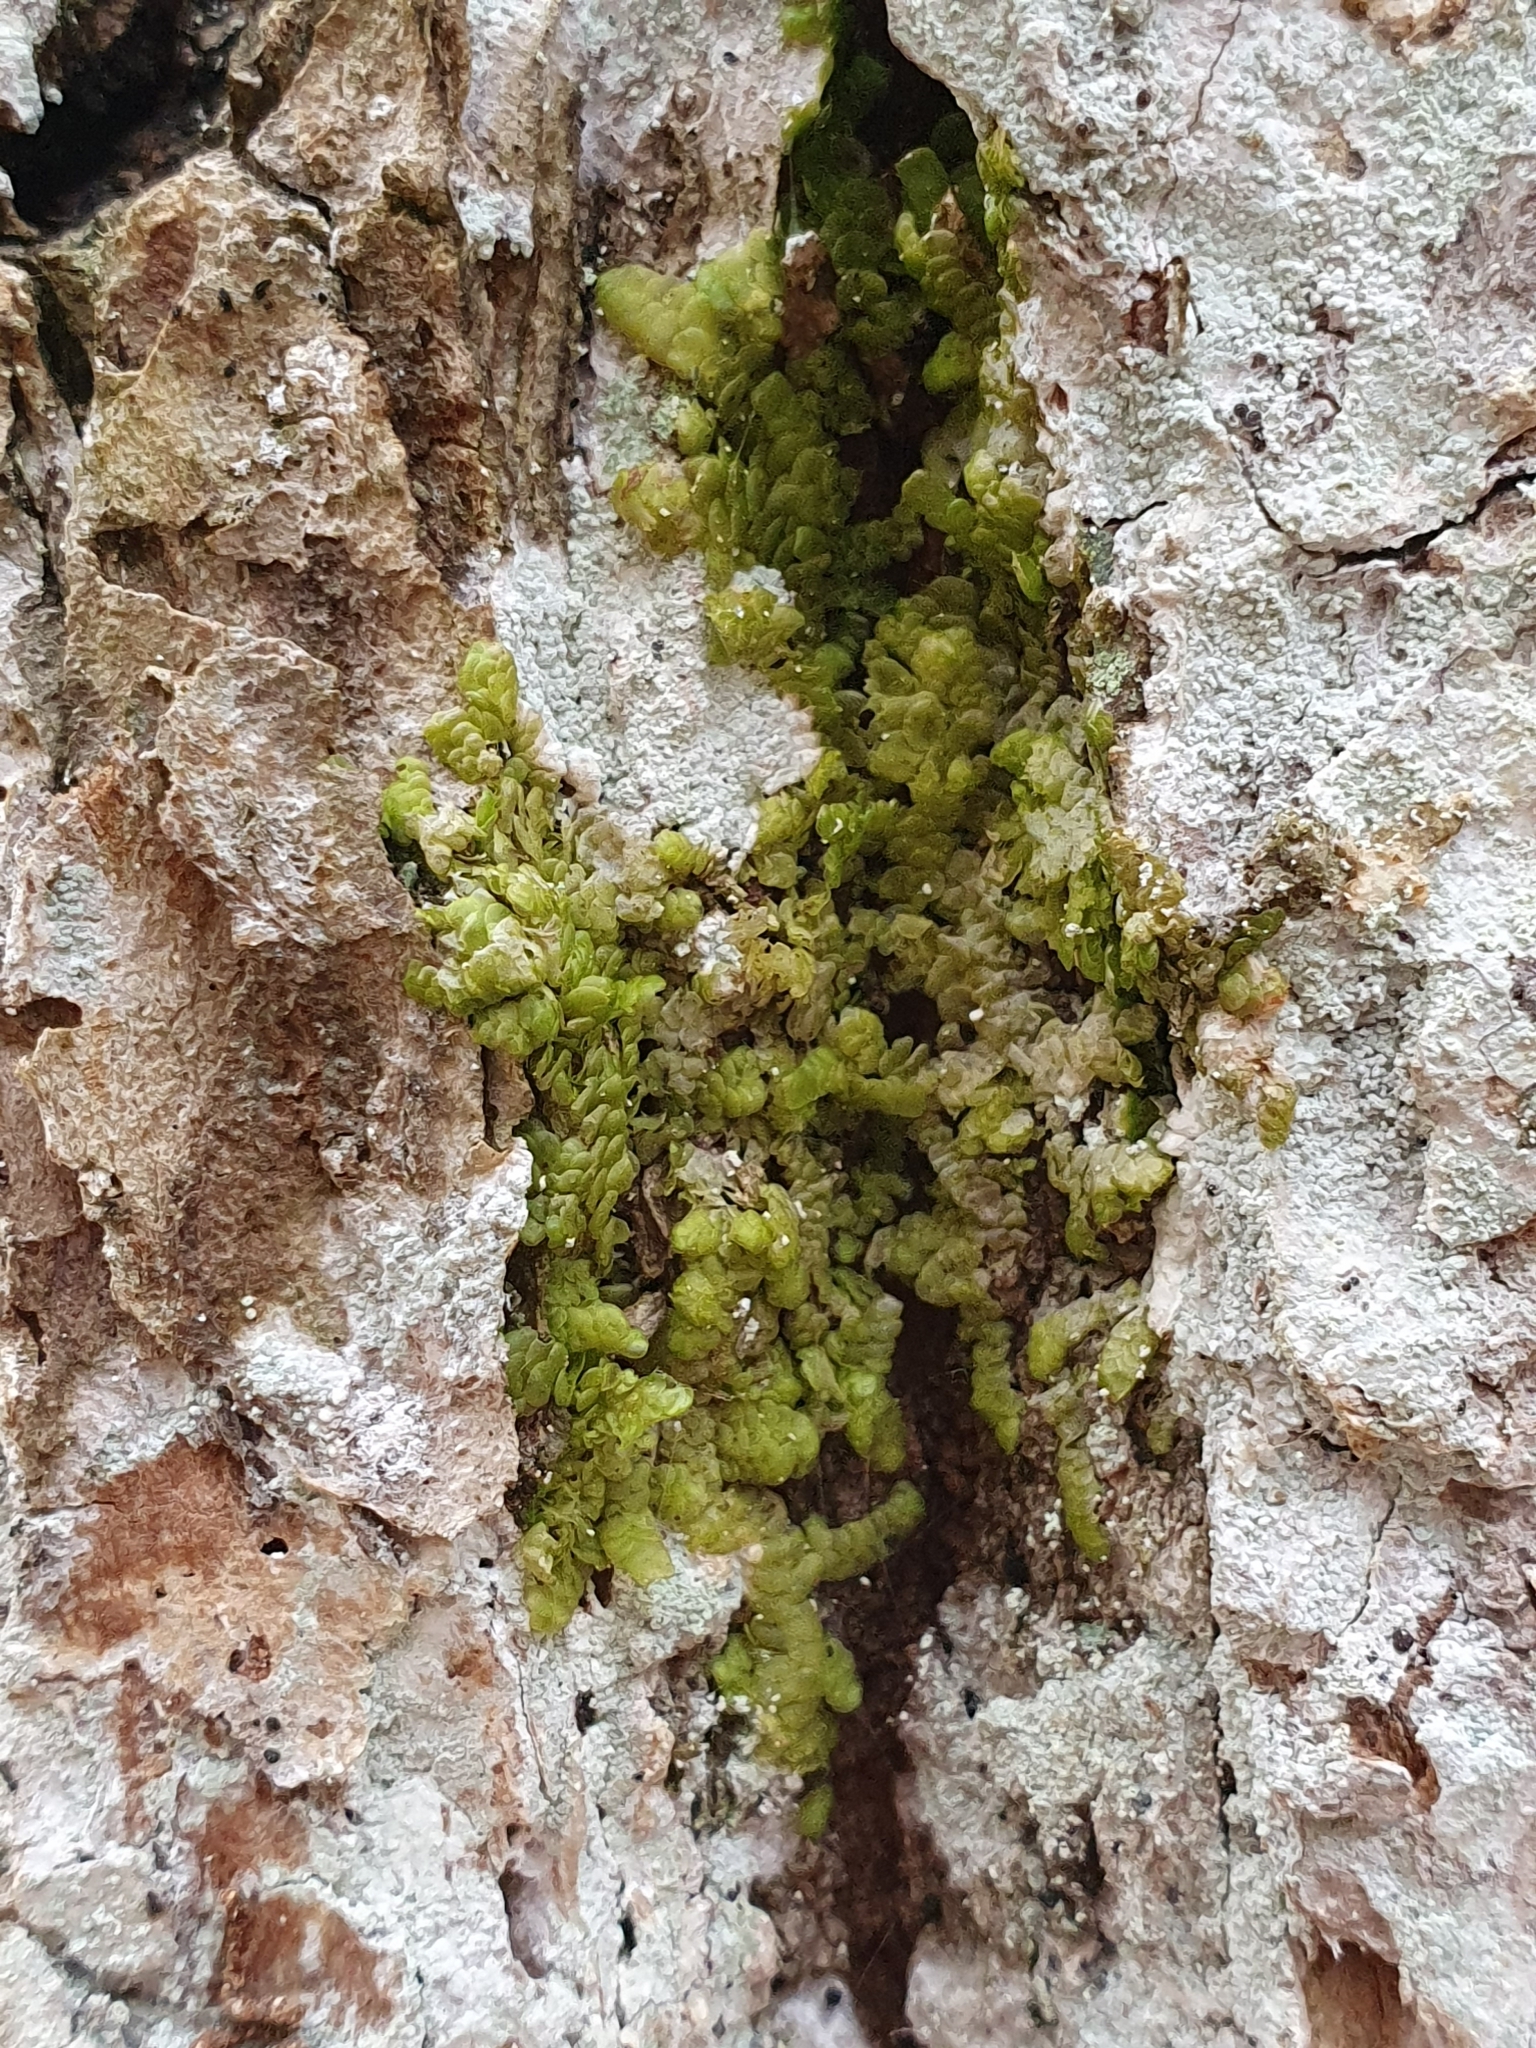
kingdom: Plantae
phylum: Marchantiophyta
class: Jungermanniopsida
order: Porellales
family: Radulaceae
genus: Radula
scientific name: Radula complanata
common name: Flat-leaved scalewort
